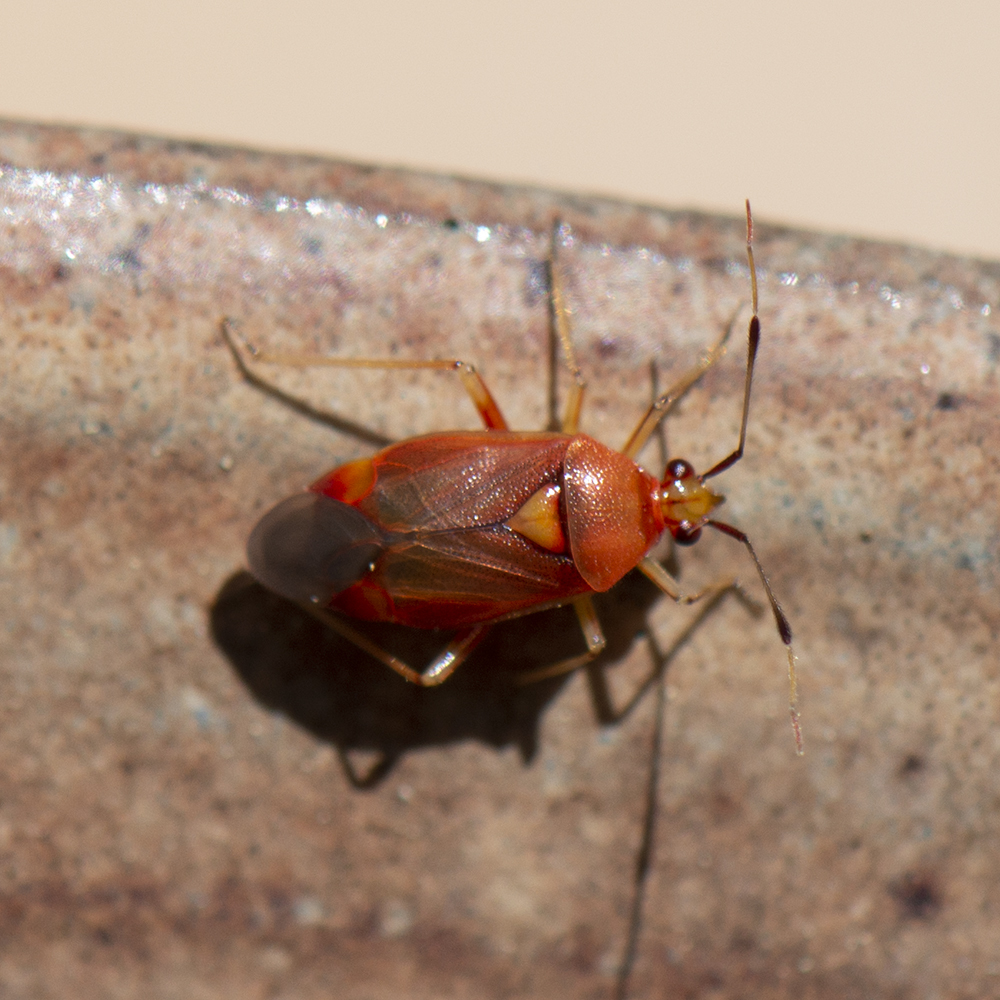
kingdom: Animalia
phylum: Arthropoda
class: Insecta
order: Hemiptera
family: Miridae
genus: Deraeocoris
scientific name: Deraeocoris ruber
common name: Plant bug
